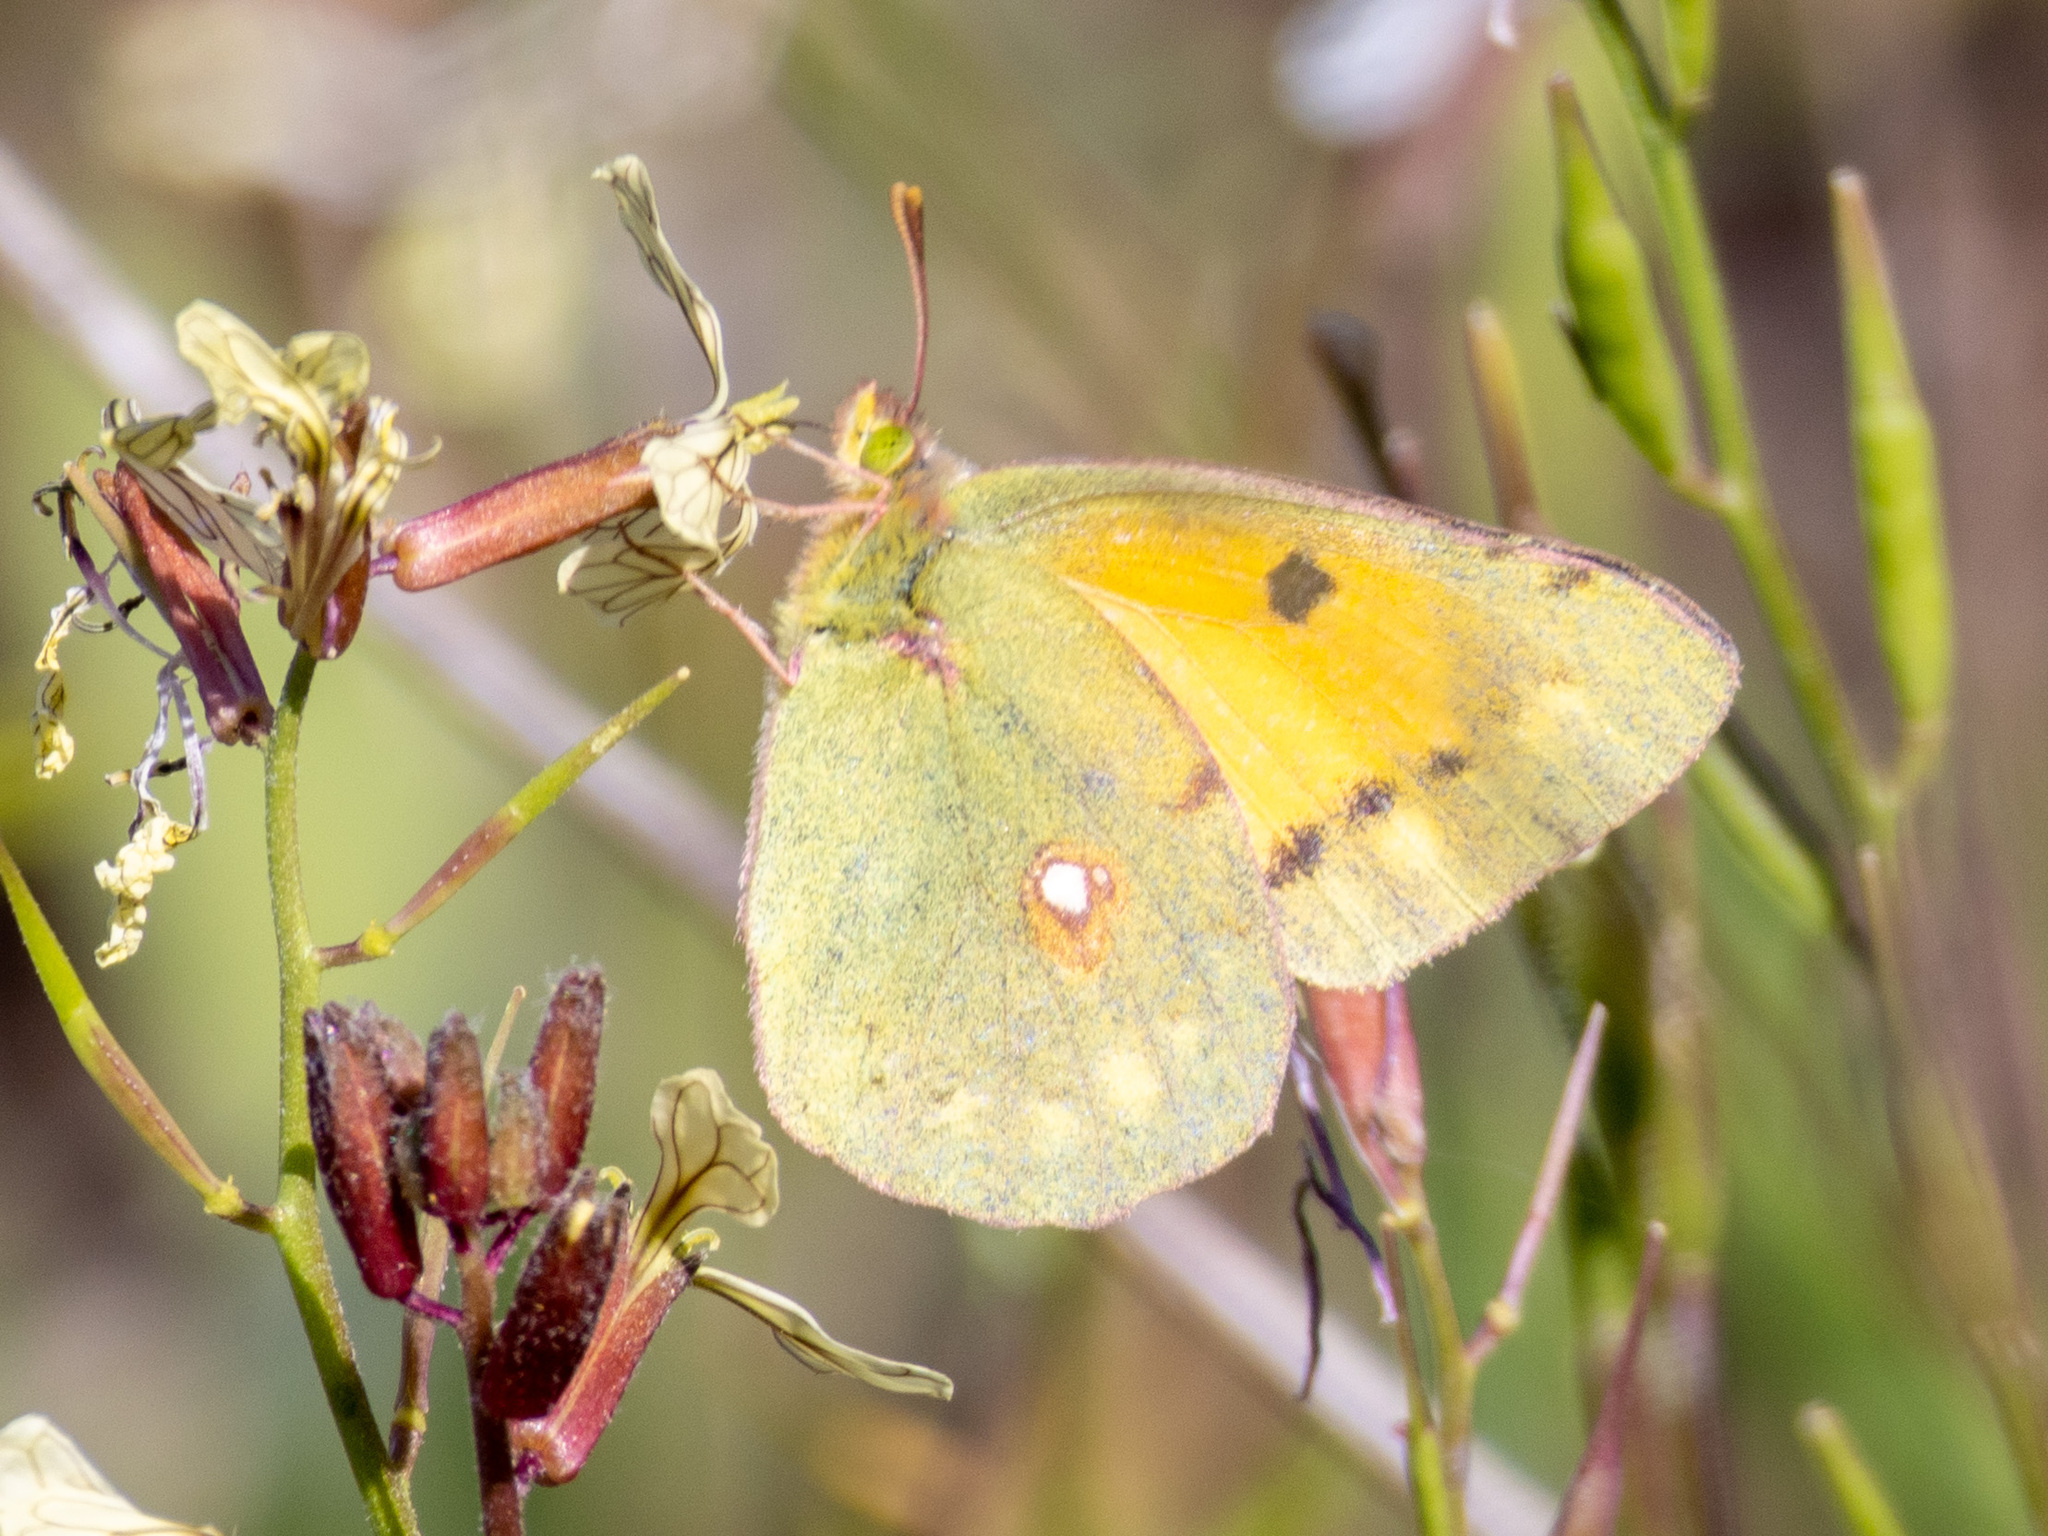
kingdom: Animalia
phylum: Arthropoda
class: Insecta
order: Lepidoptera
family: Pieridae
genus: Colias
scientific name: Colias croceus
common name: Clouded yellow
